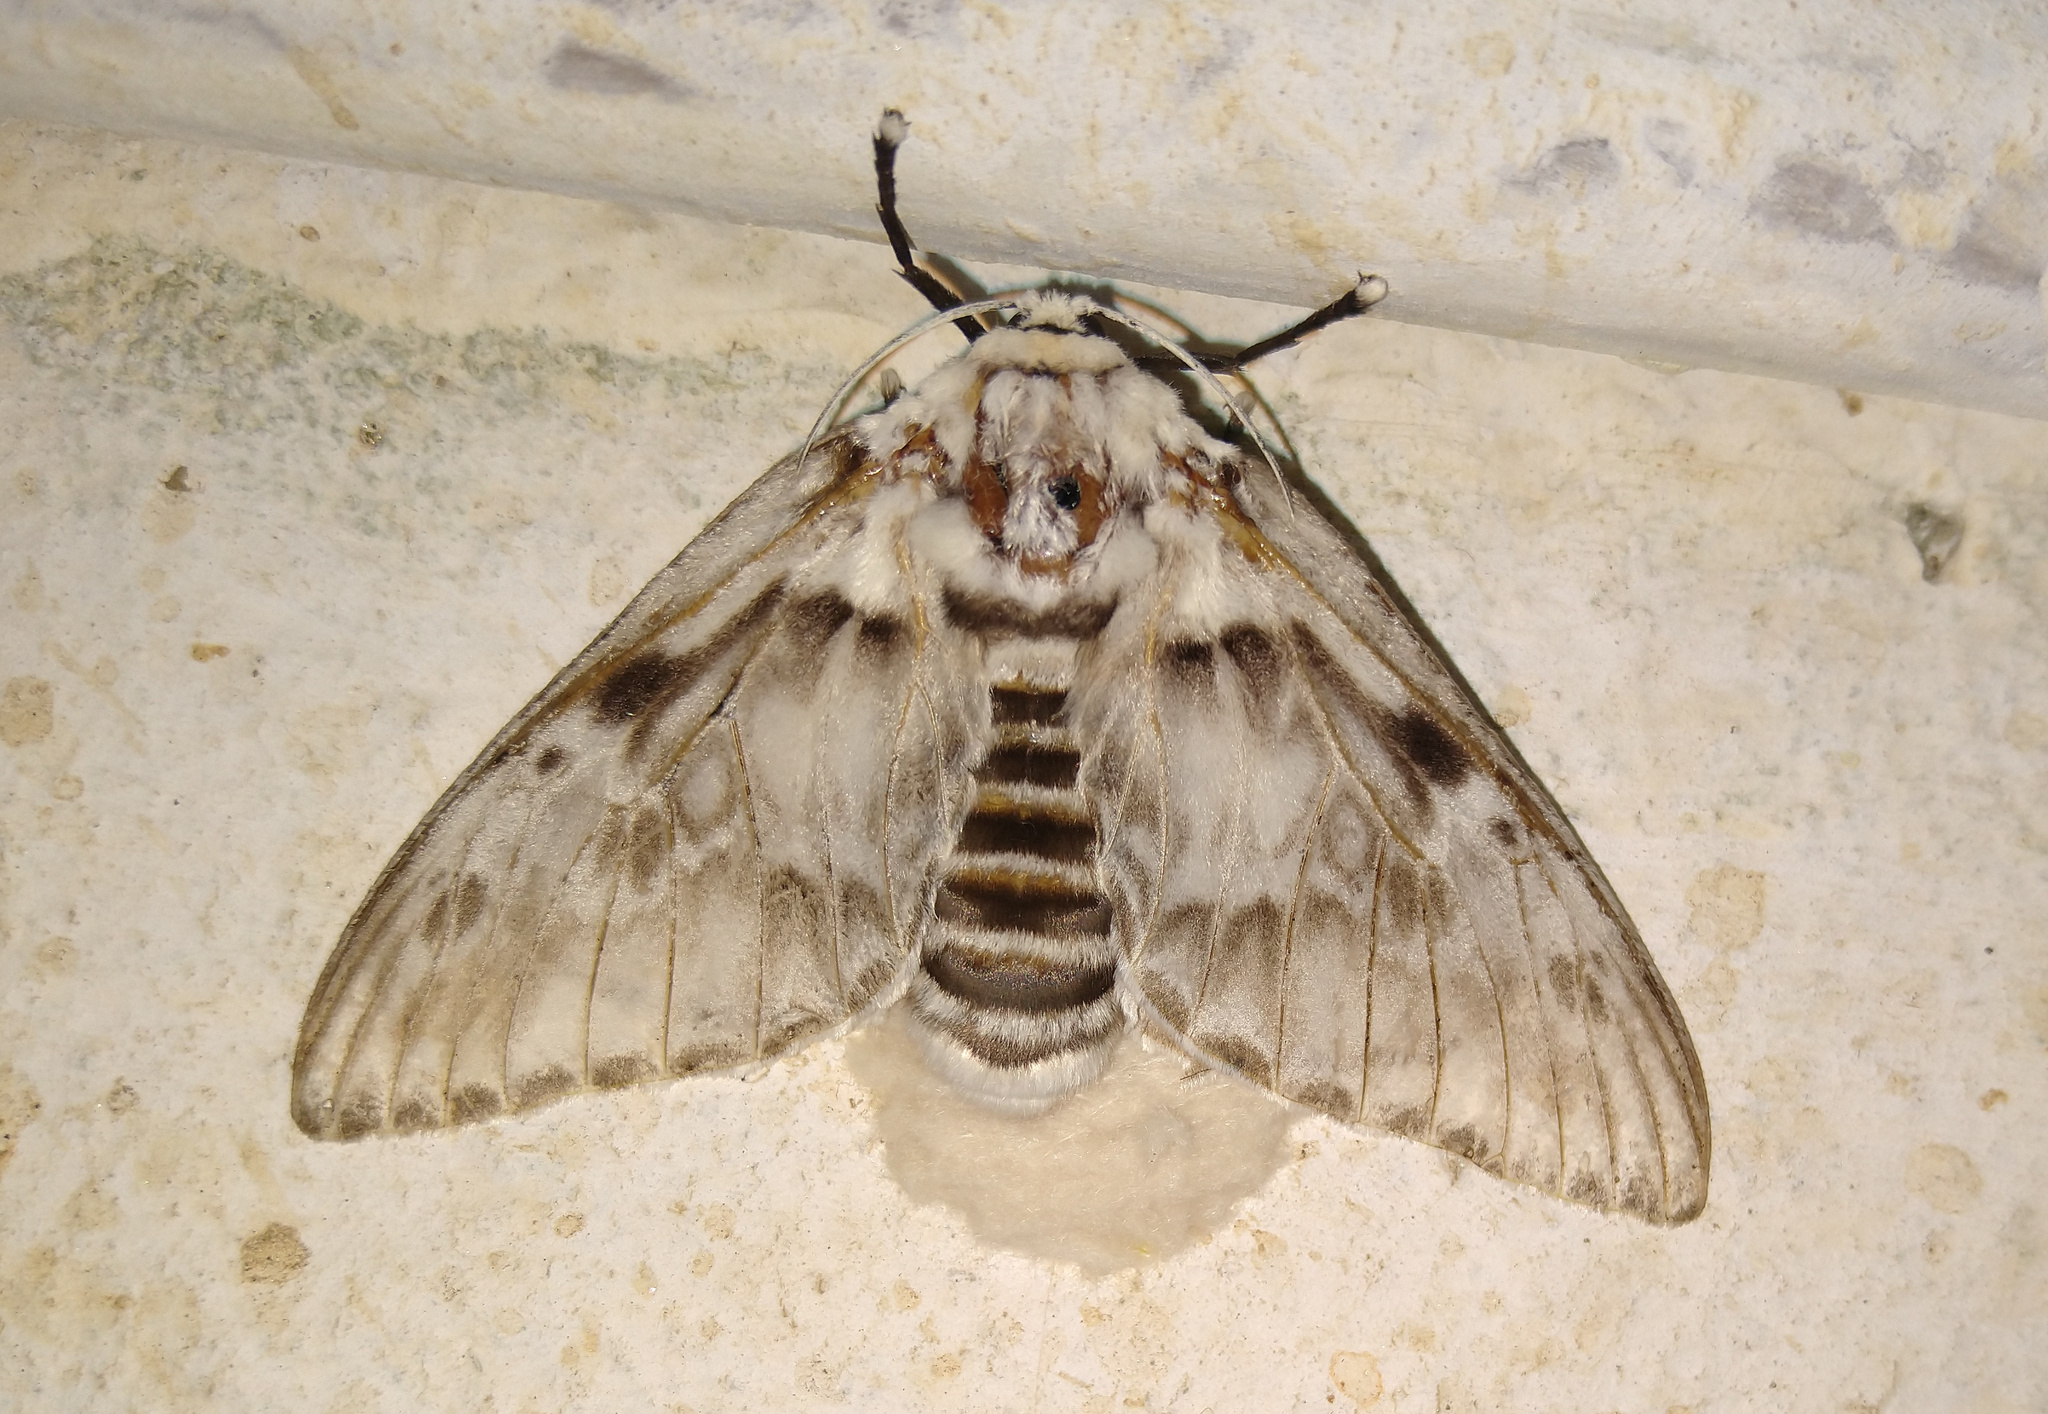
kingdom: Animalia
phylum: Arthropoda
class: Insecta
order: Lepidoptera
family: Megalopygidae
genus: Podalia
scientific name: Podalia orsilochus
